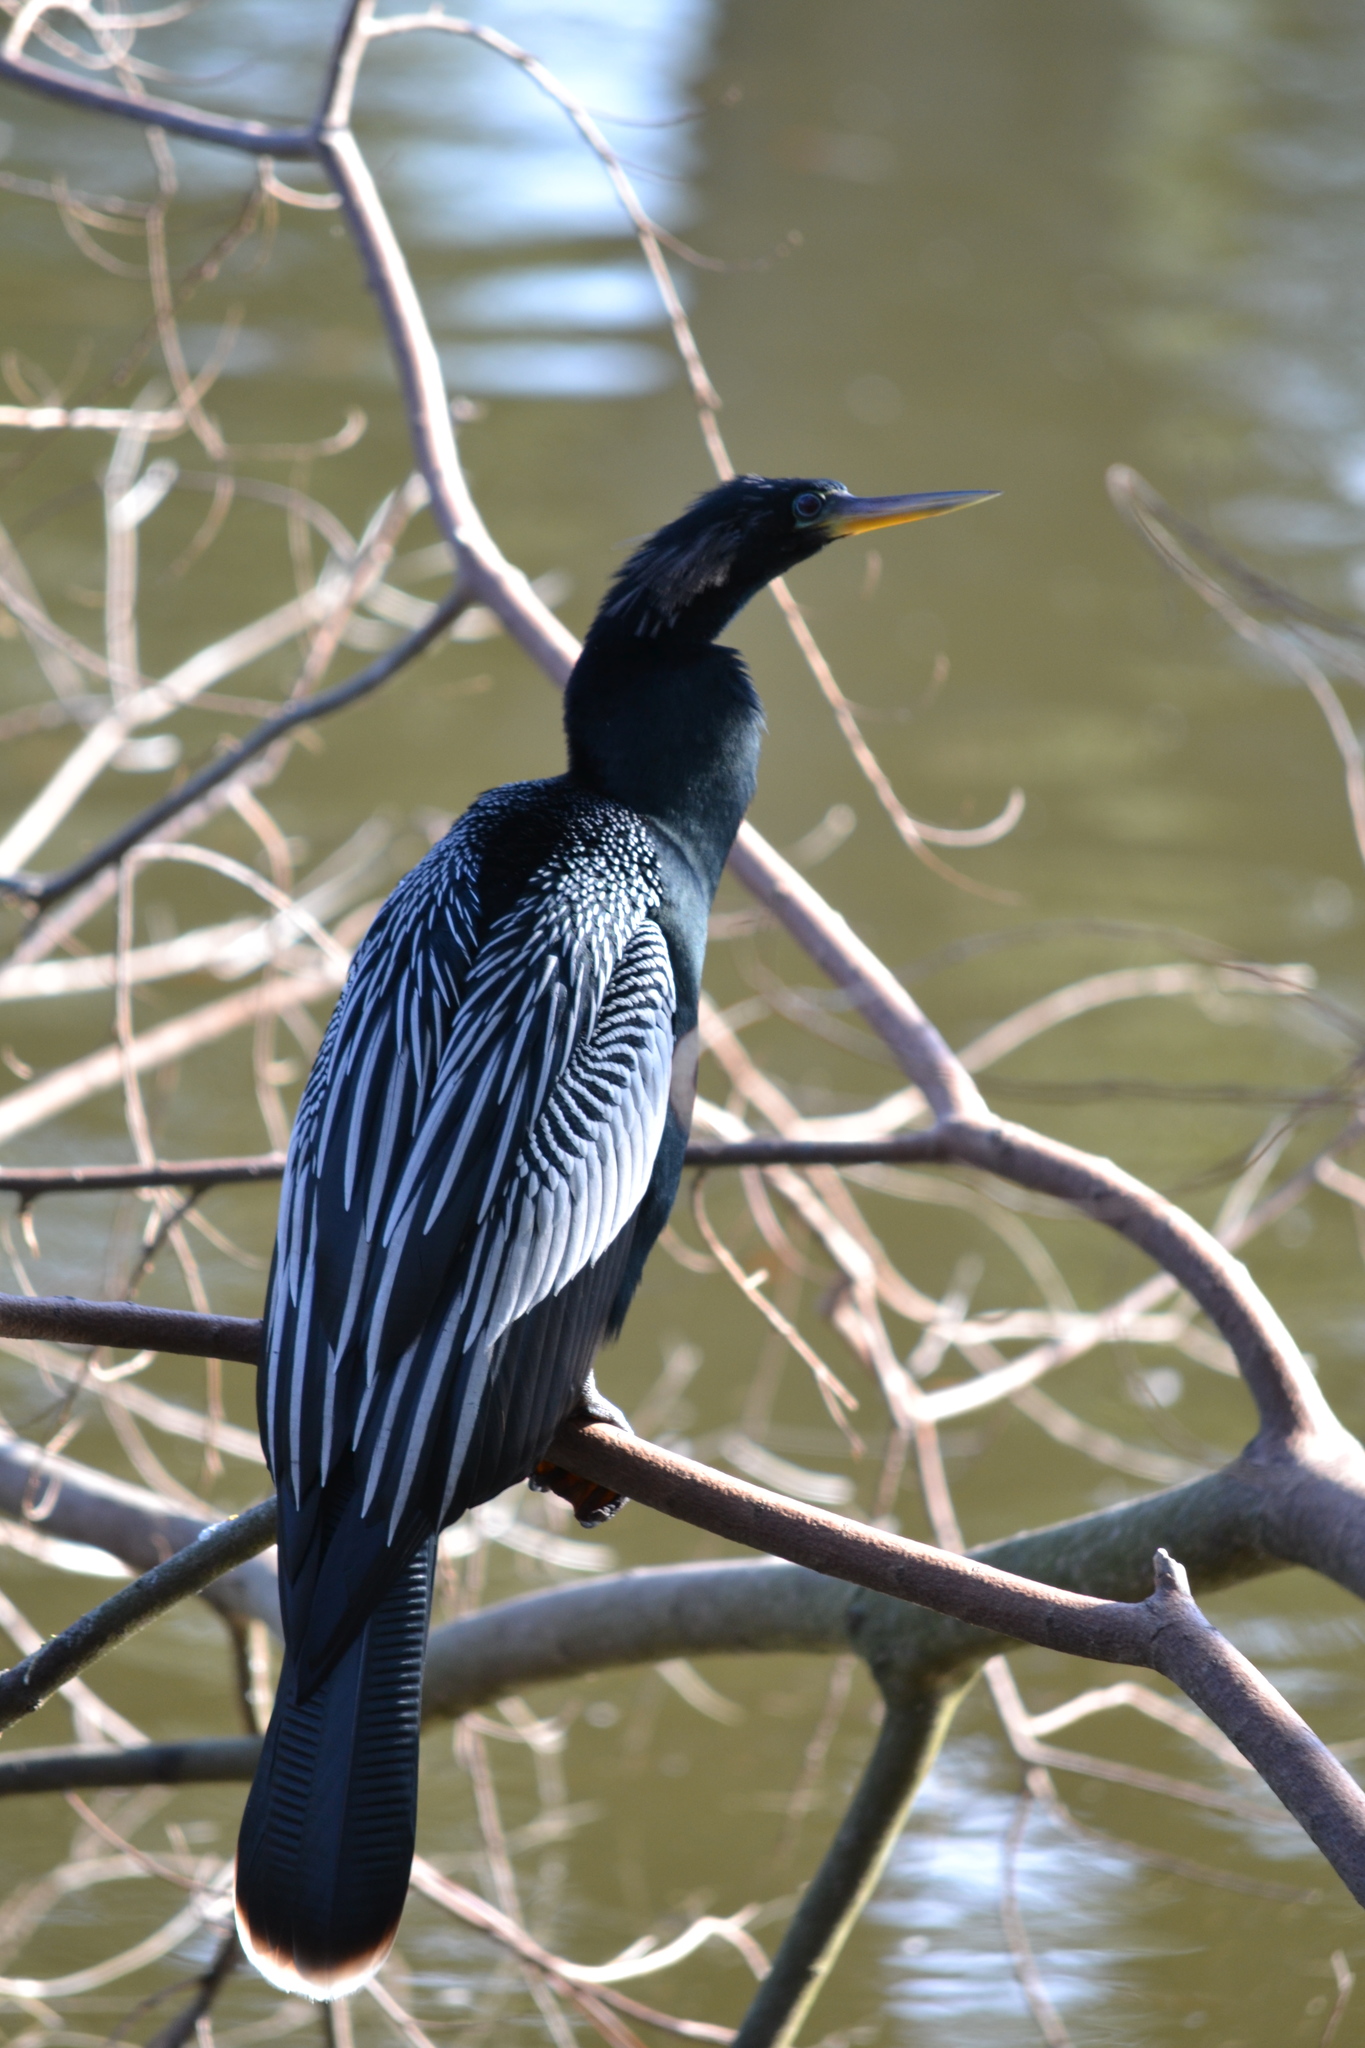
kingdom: Animalia
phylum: Chordata
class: Aves
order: Suliformes
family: Anhingidae
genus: Anhinga
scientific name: Anhinga anhinga
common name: Anhinga
